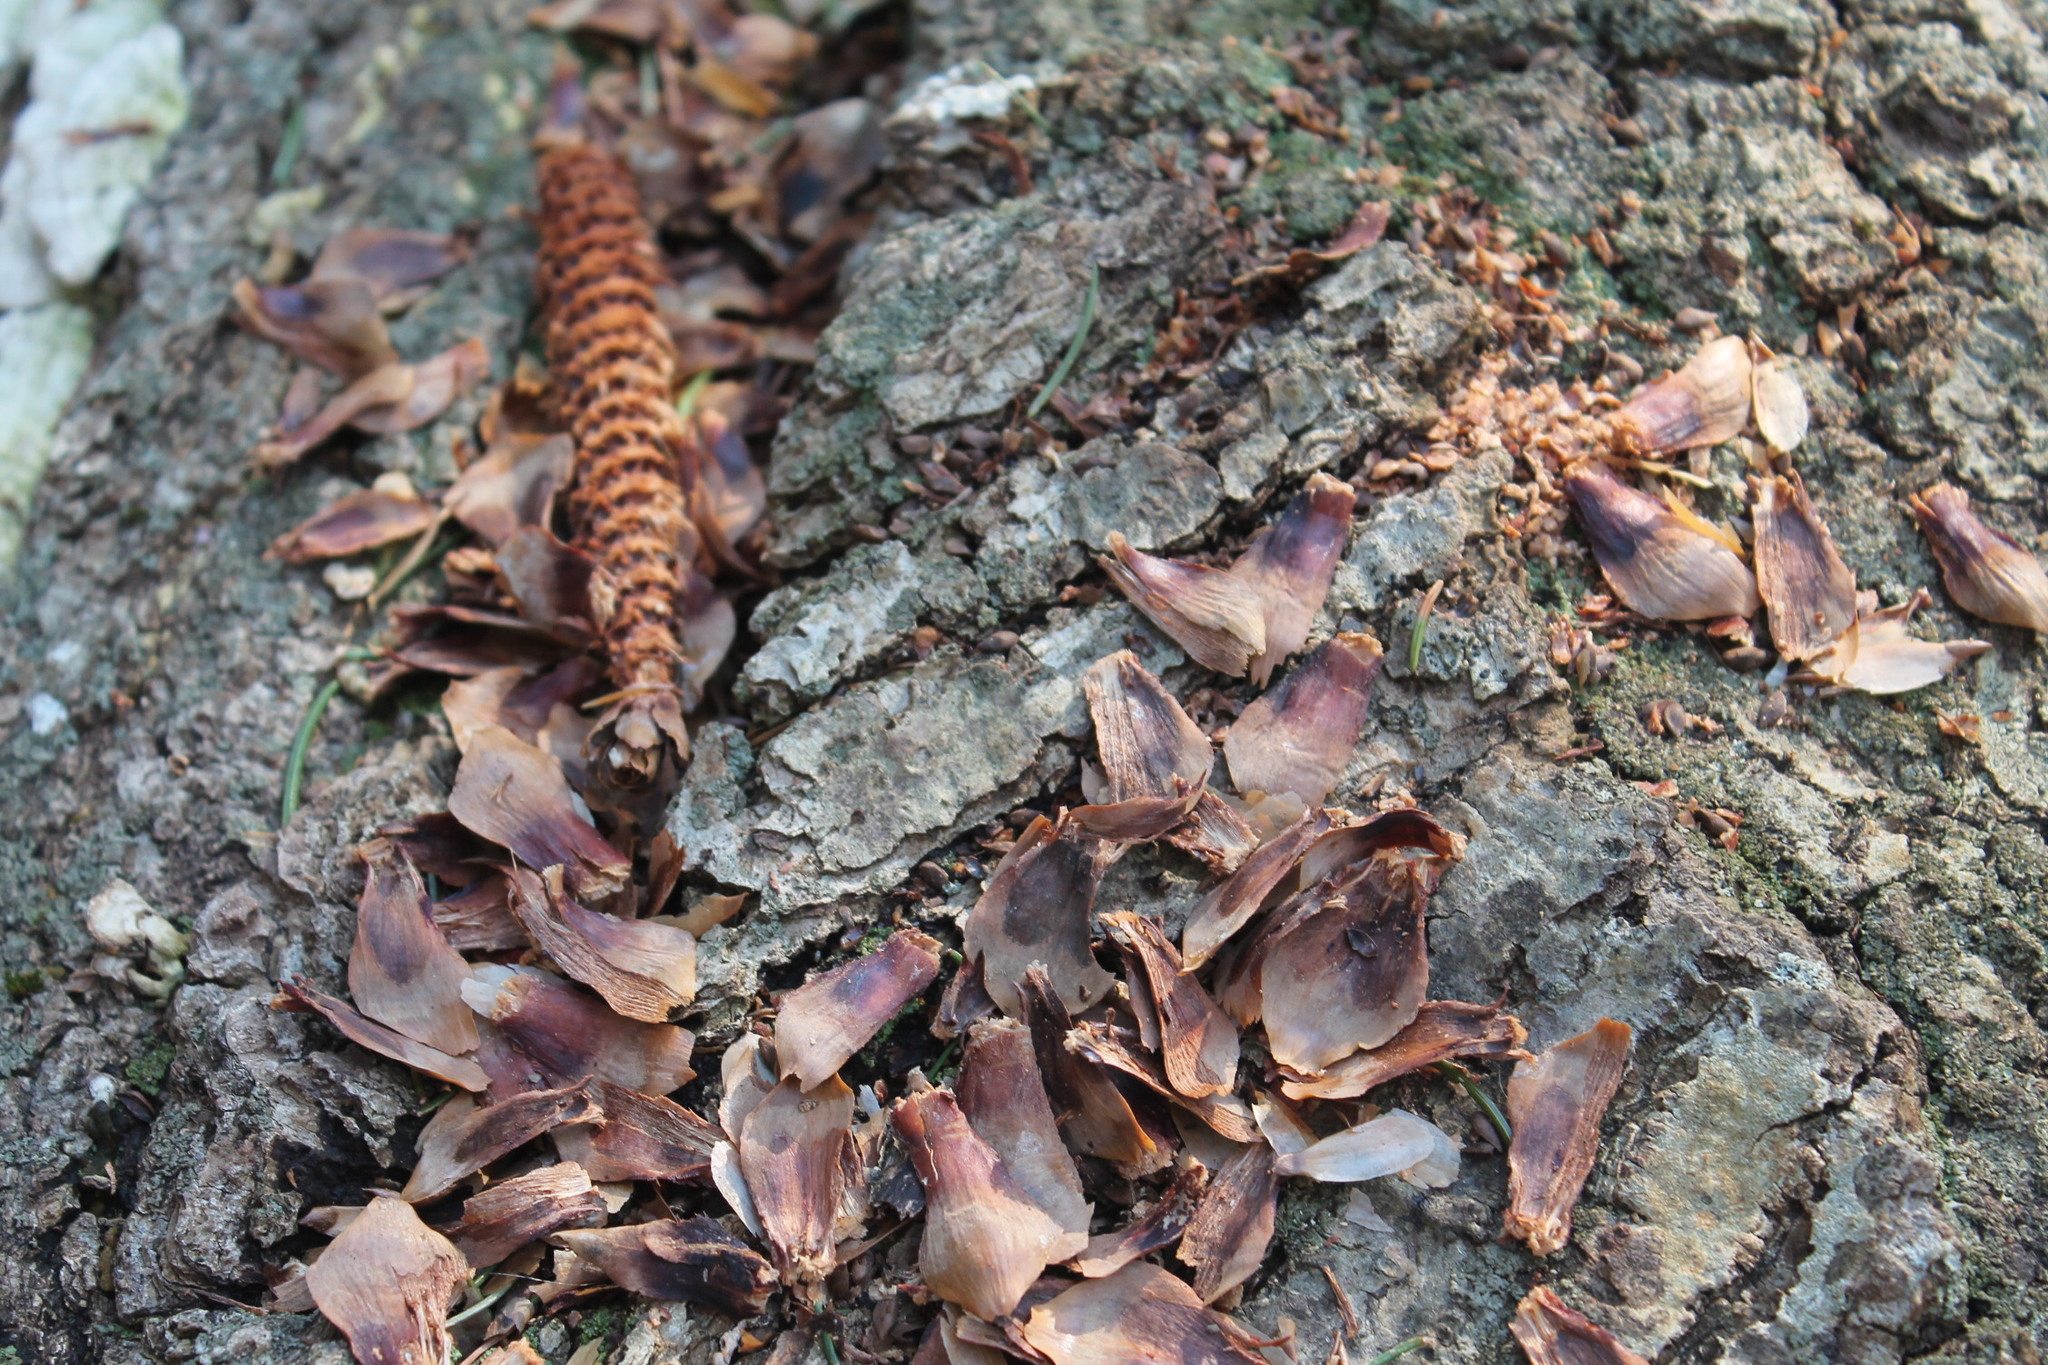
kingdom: Animalia
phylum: Chordata
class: Mammalia
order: Rodentia
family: Sciuridae
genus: Tamiasciurus
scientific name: Tamiasciurus hudsonicus
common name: Red squirrel
